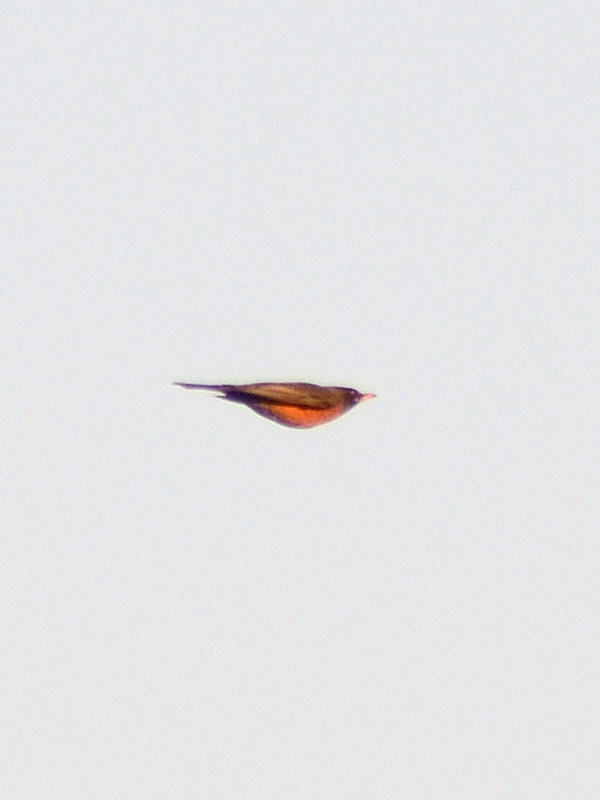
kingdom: Animalia
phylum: Chordata
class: Aves
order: Passeriformes
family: Turdidae
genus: Turdus
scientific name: Turdus migratorius
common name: American robin
